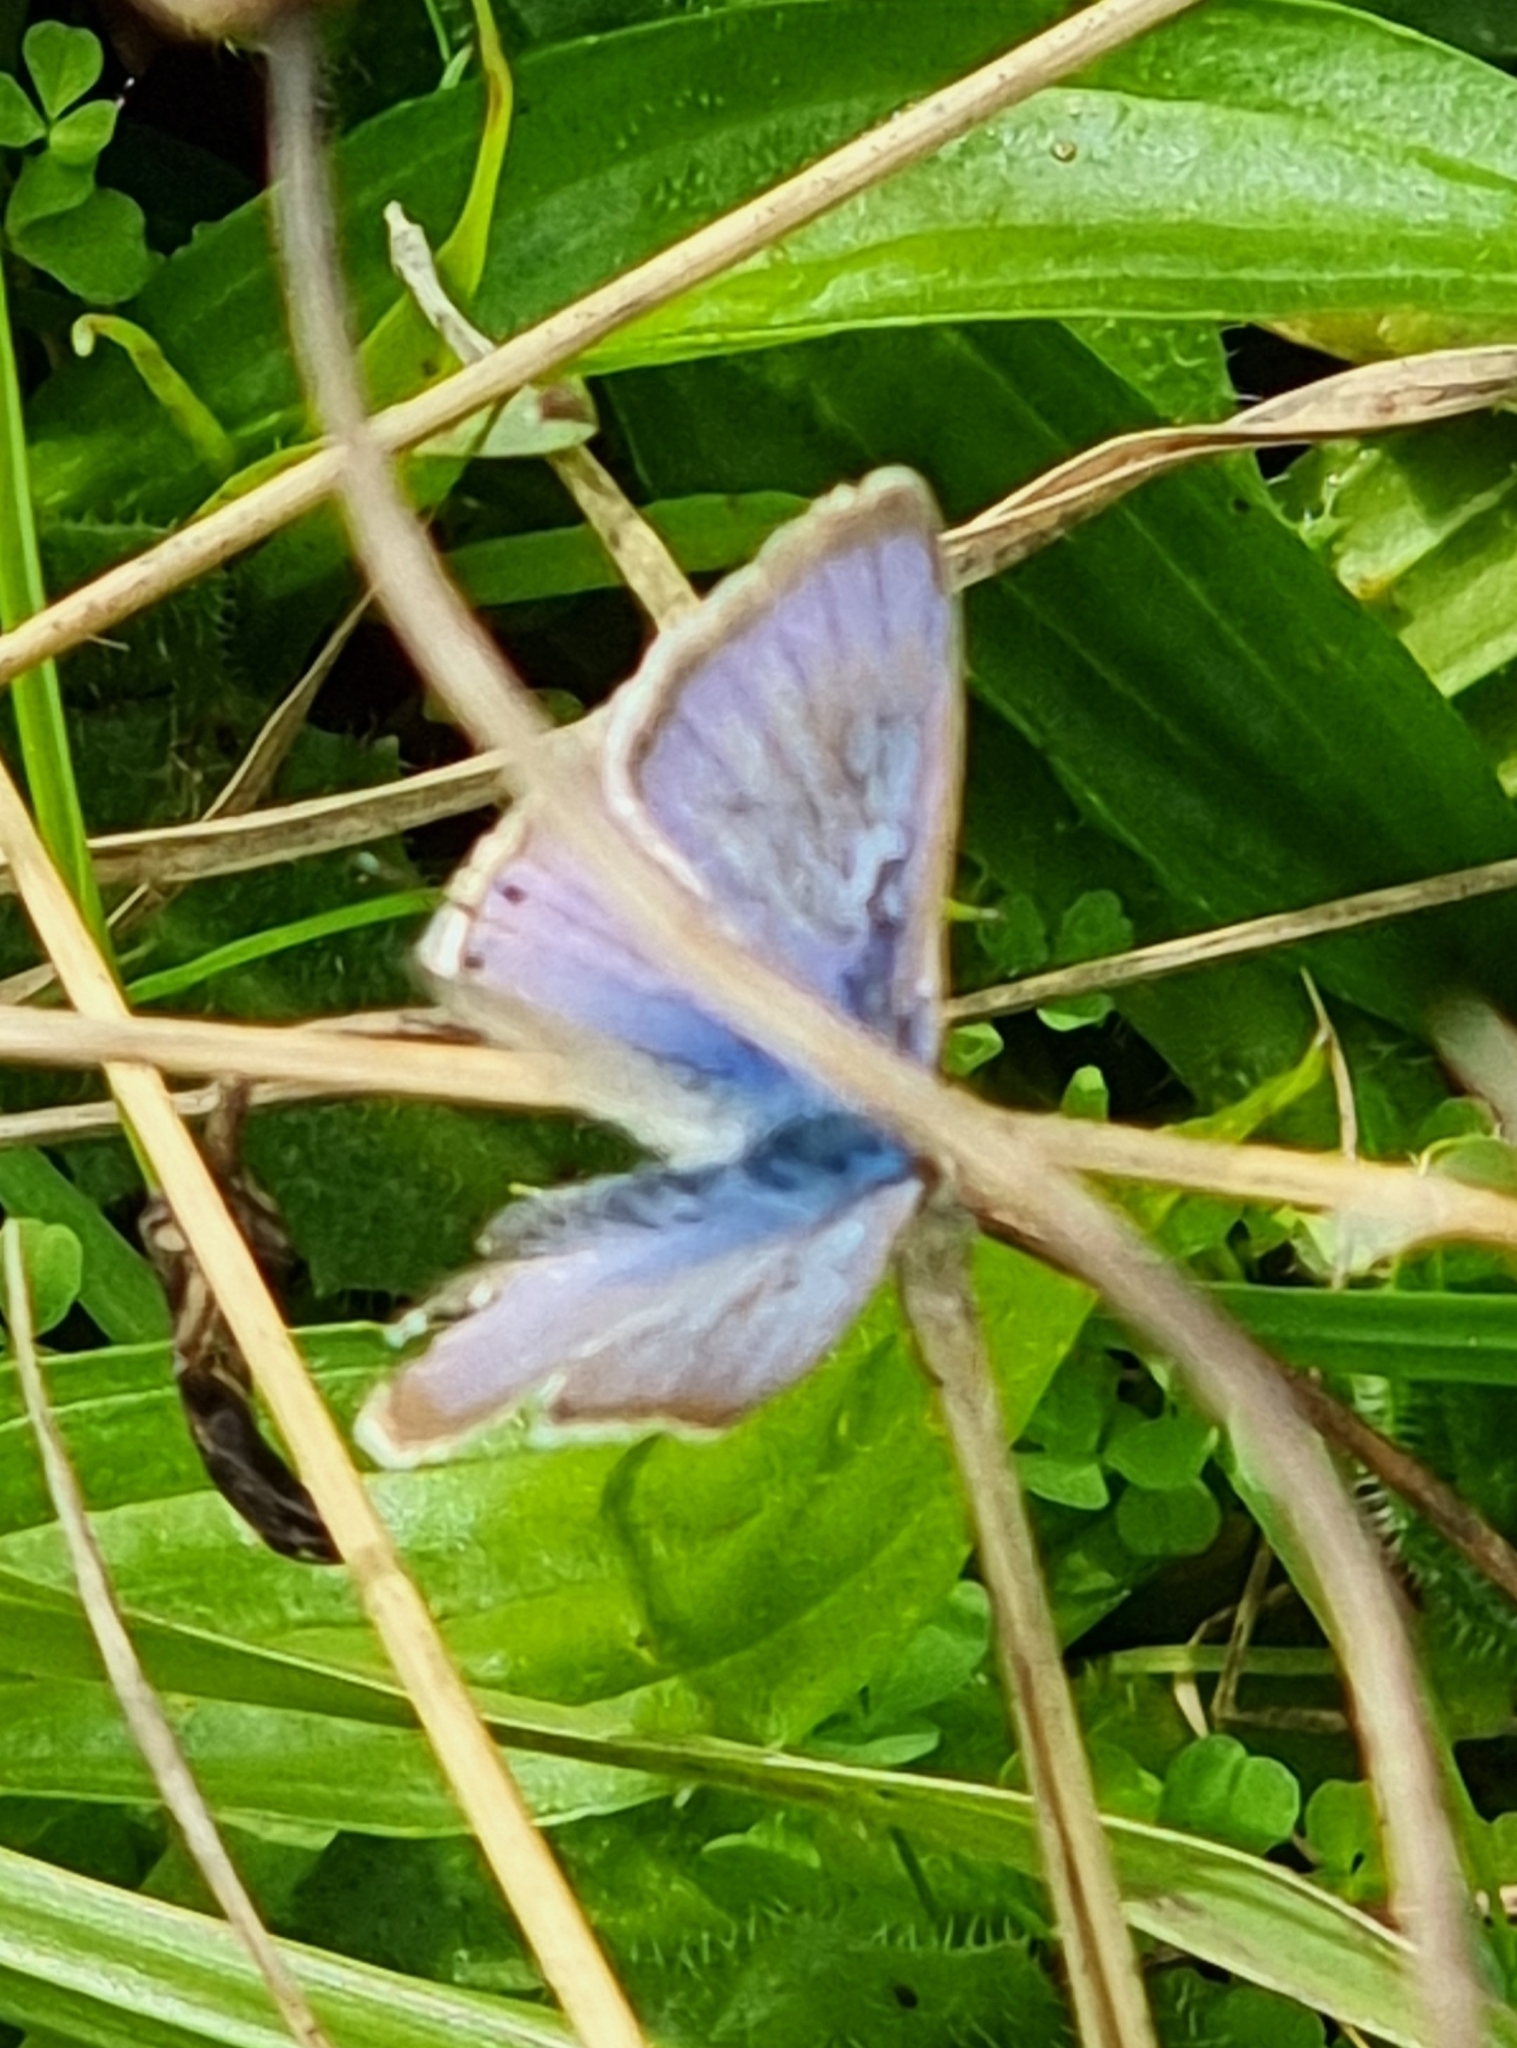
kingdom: Animalia
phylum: Arthropoda
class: Insecta
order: Lepidoptera
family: Lycaenidae
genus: Lampides
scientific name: Lampides boeticus
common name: Long-tailed blue
